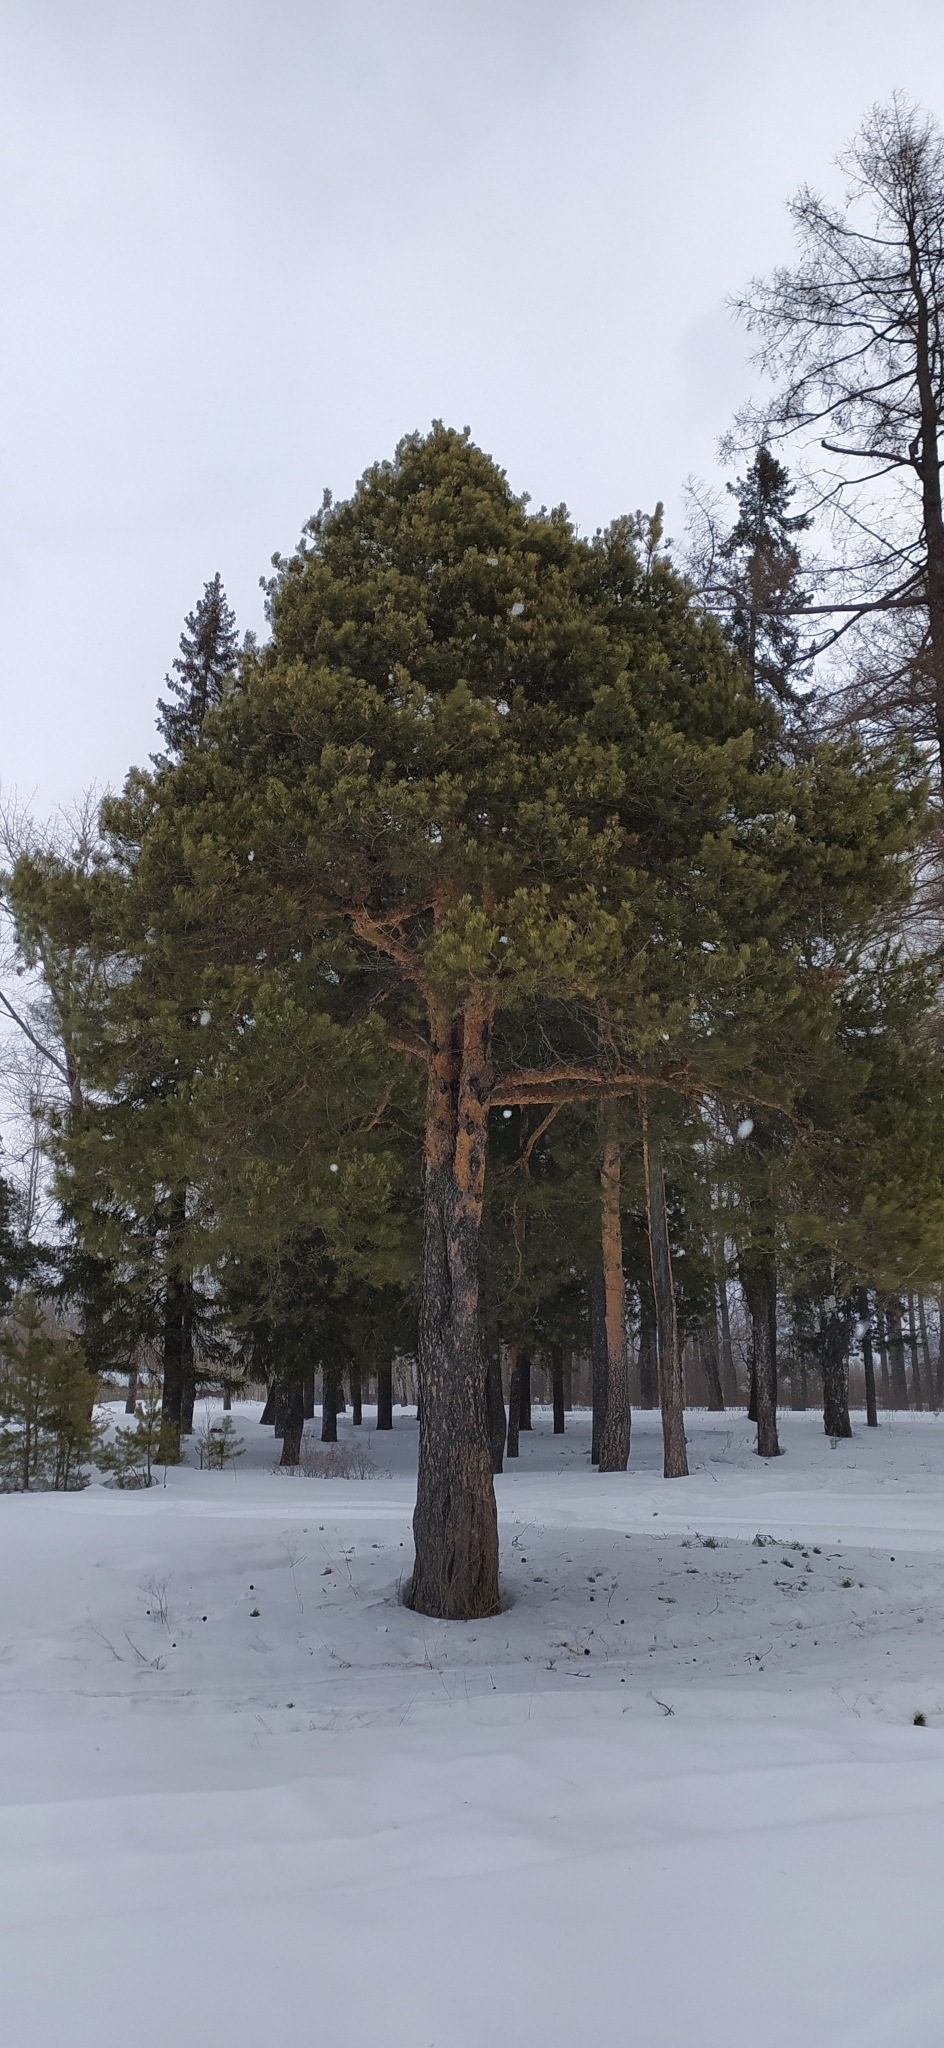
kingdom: Plantae
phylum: Tracheophyta
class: Pinopsida
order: Pinales
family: Pinaceae
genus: Pinus
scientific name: Pinus sylvestris
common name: Scots pine
